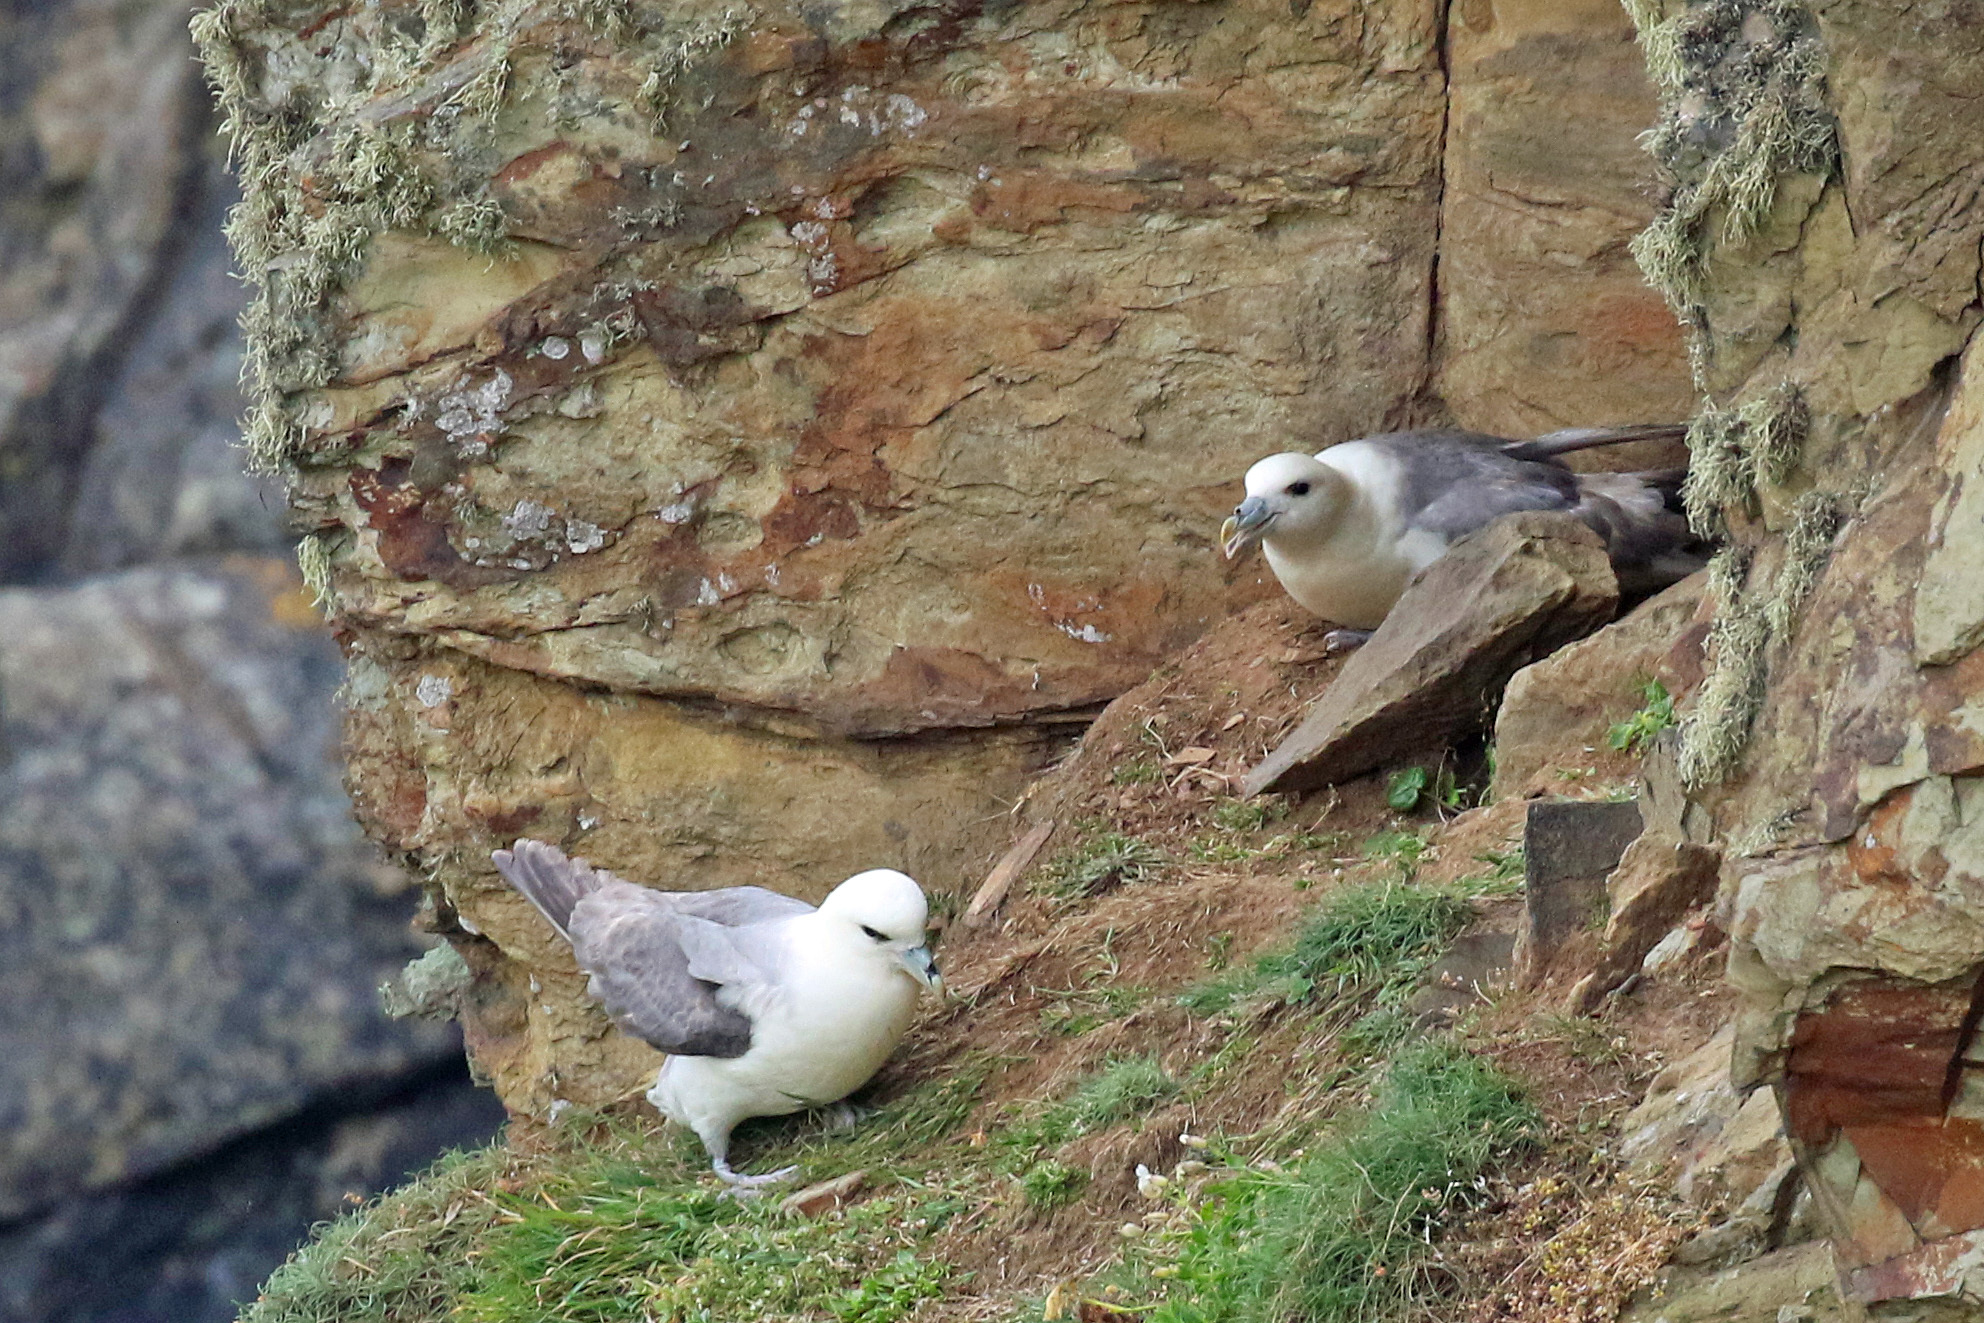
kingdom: Animalia
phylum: Chordata
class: Aves
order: Procellariiformes
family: Procellariidae
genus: Fulmarus
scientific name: Fulmarus glacialis
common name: Northern fulmar
